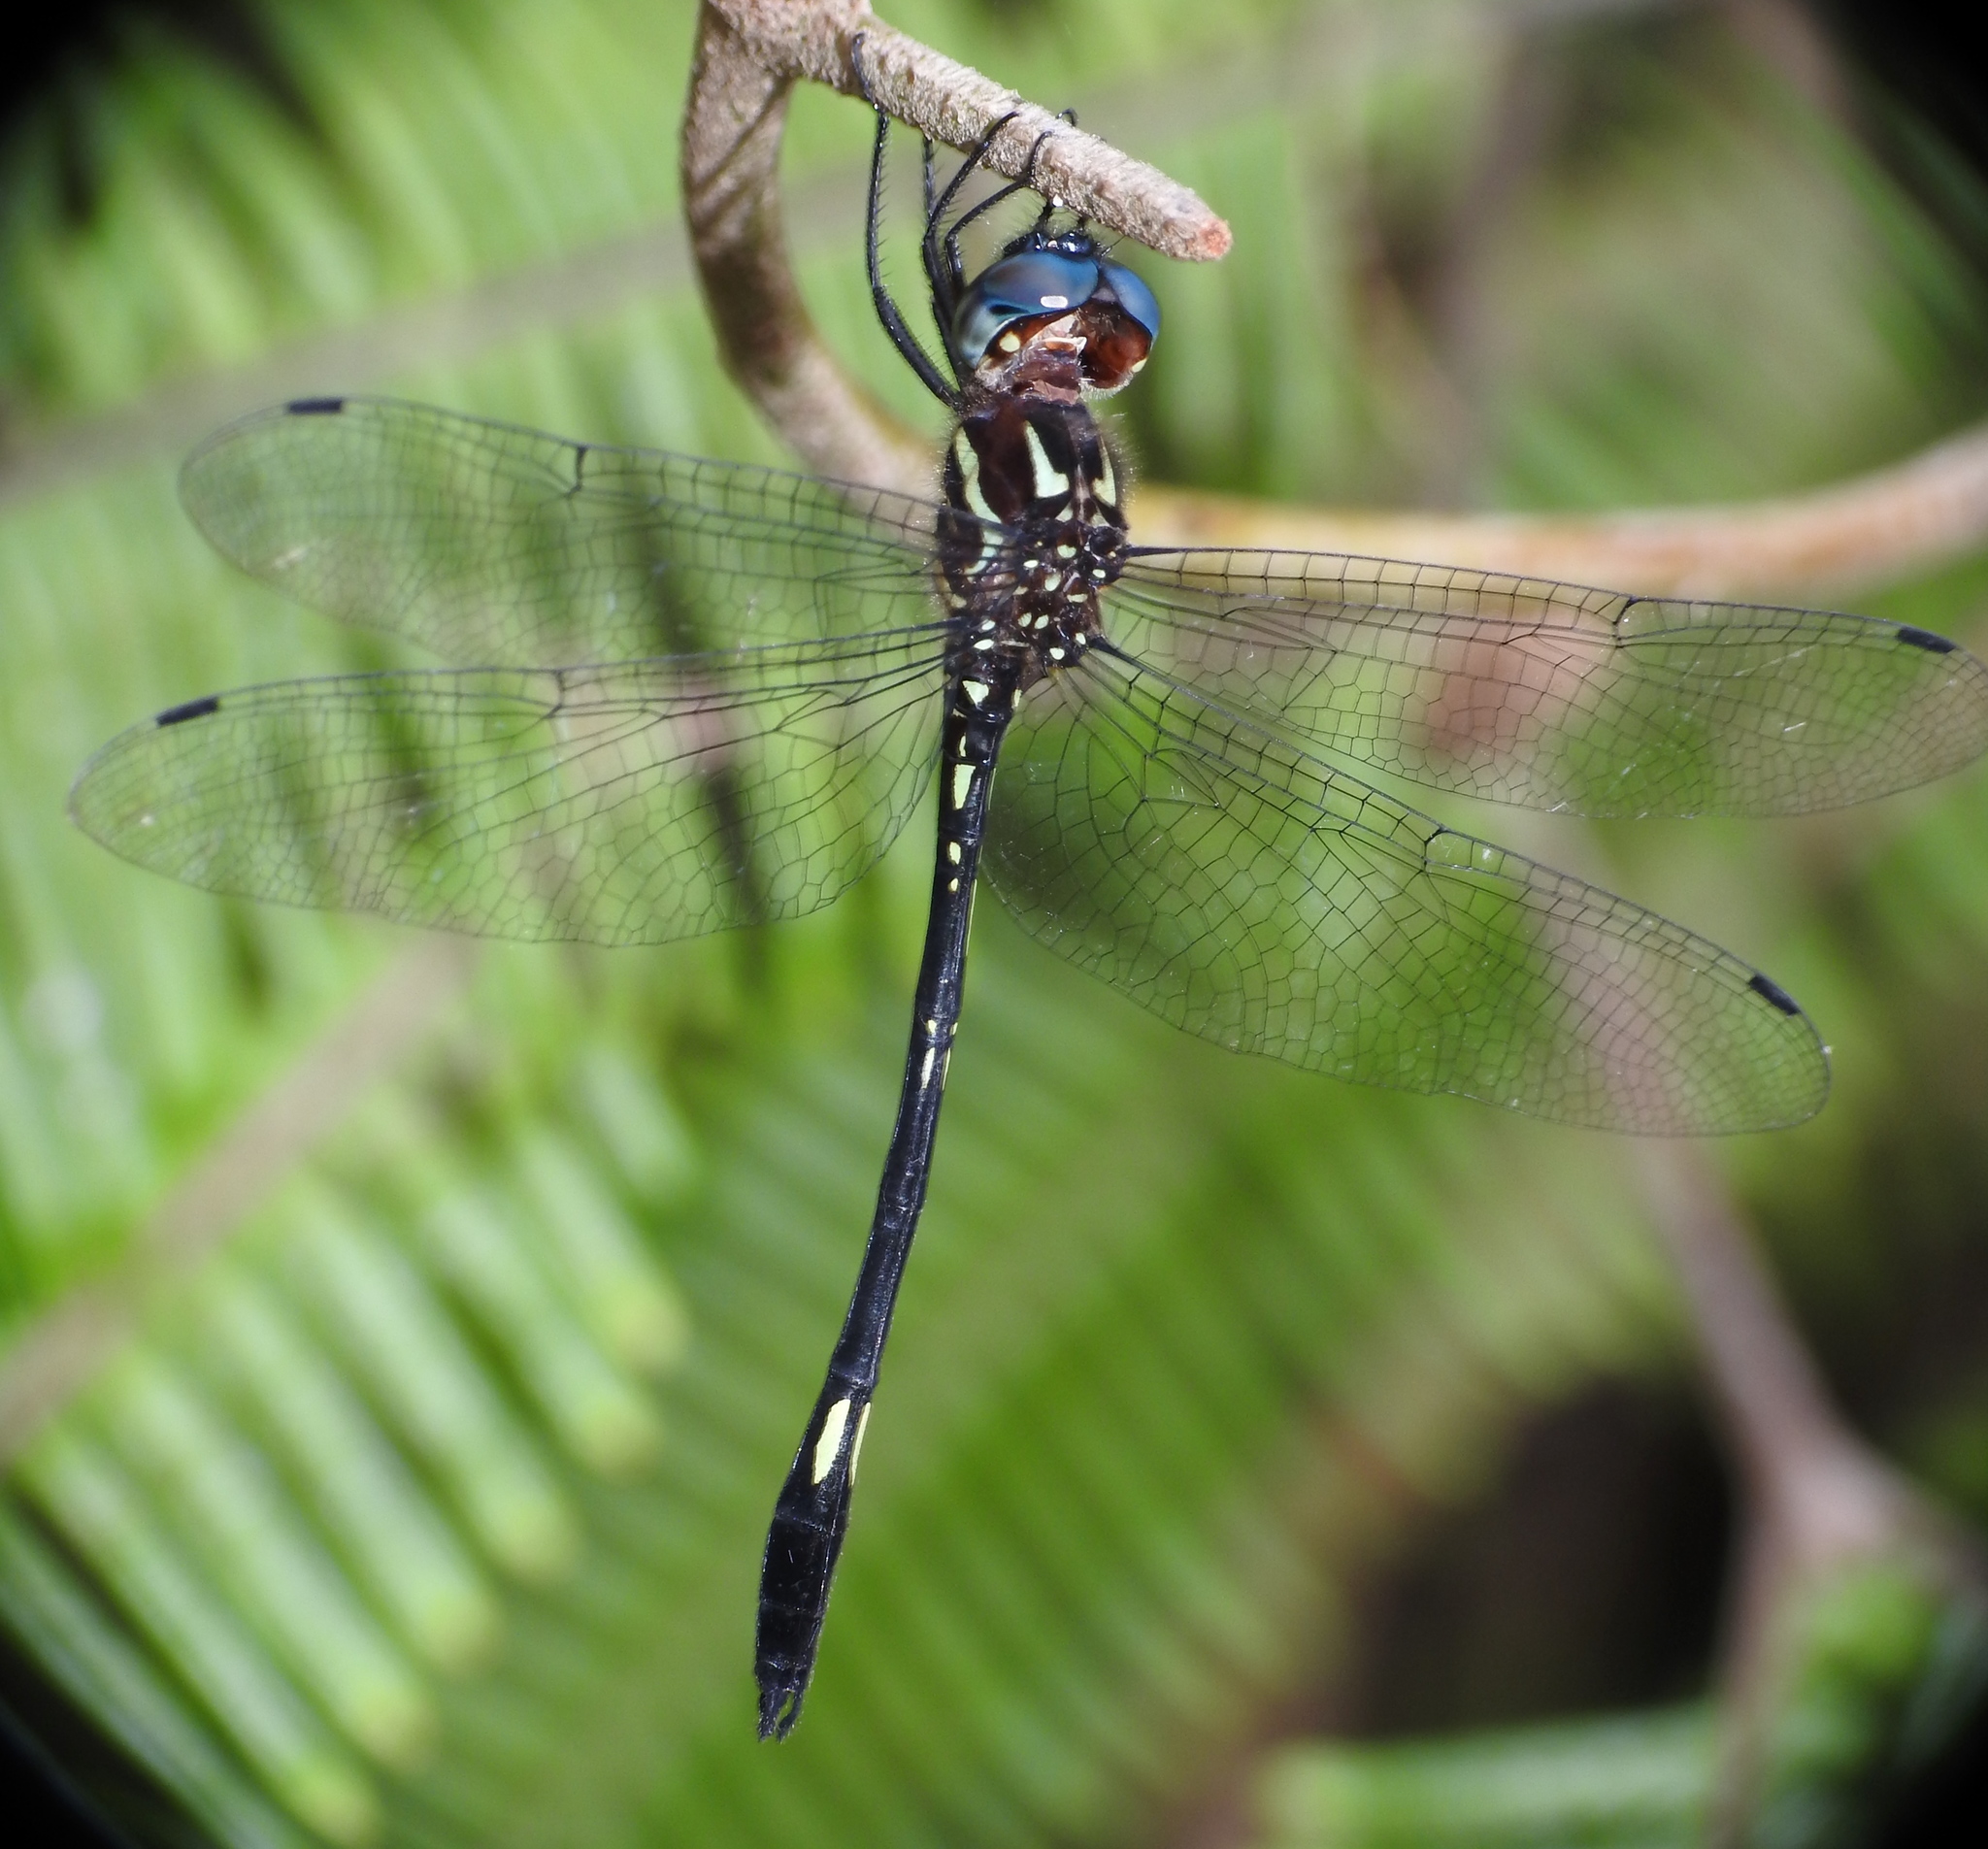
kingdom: Animalia
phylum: Arthropoda
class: Insecta
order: Odonata
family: Libellulidae
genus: Brechmorhoga
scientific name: Brechmorhoga nubecula
